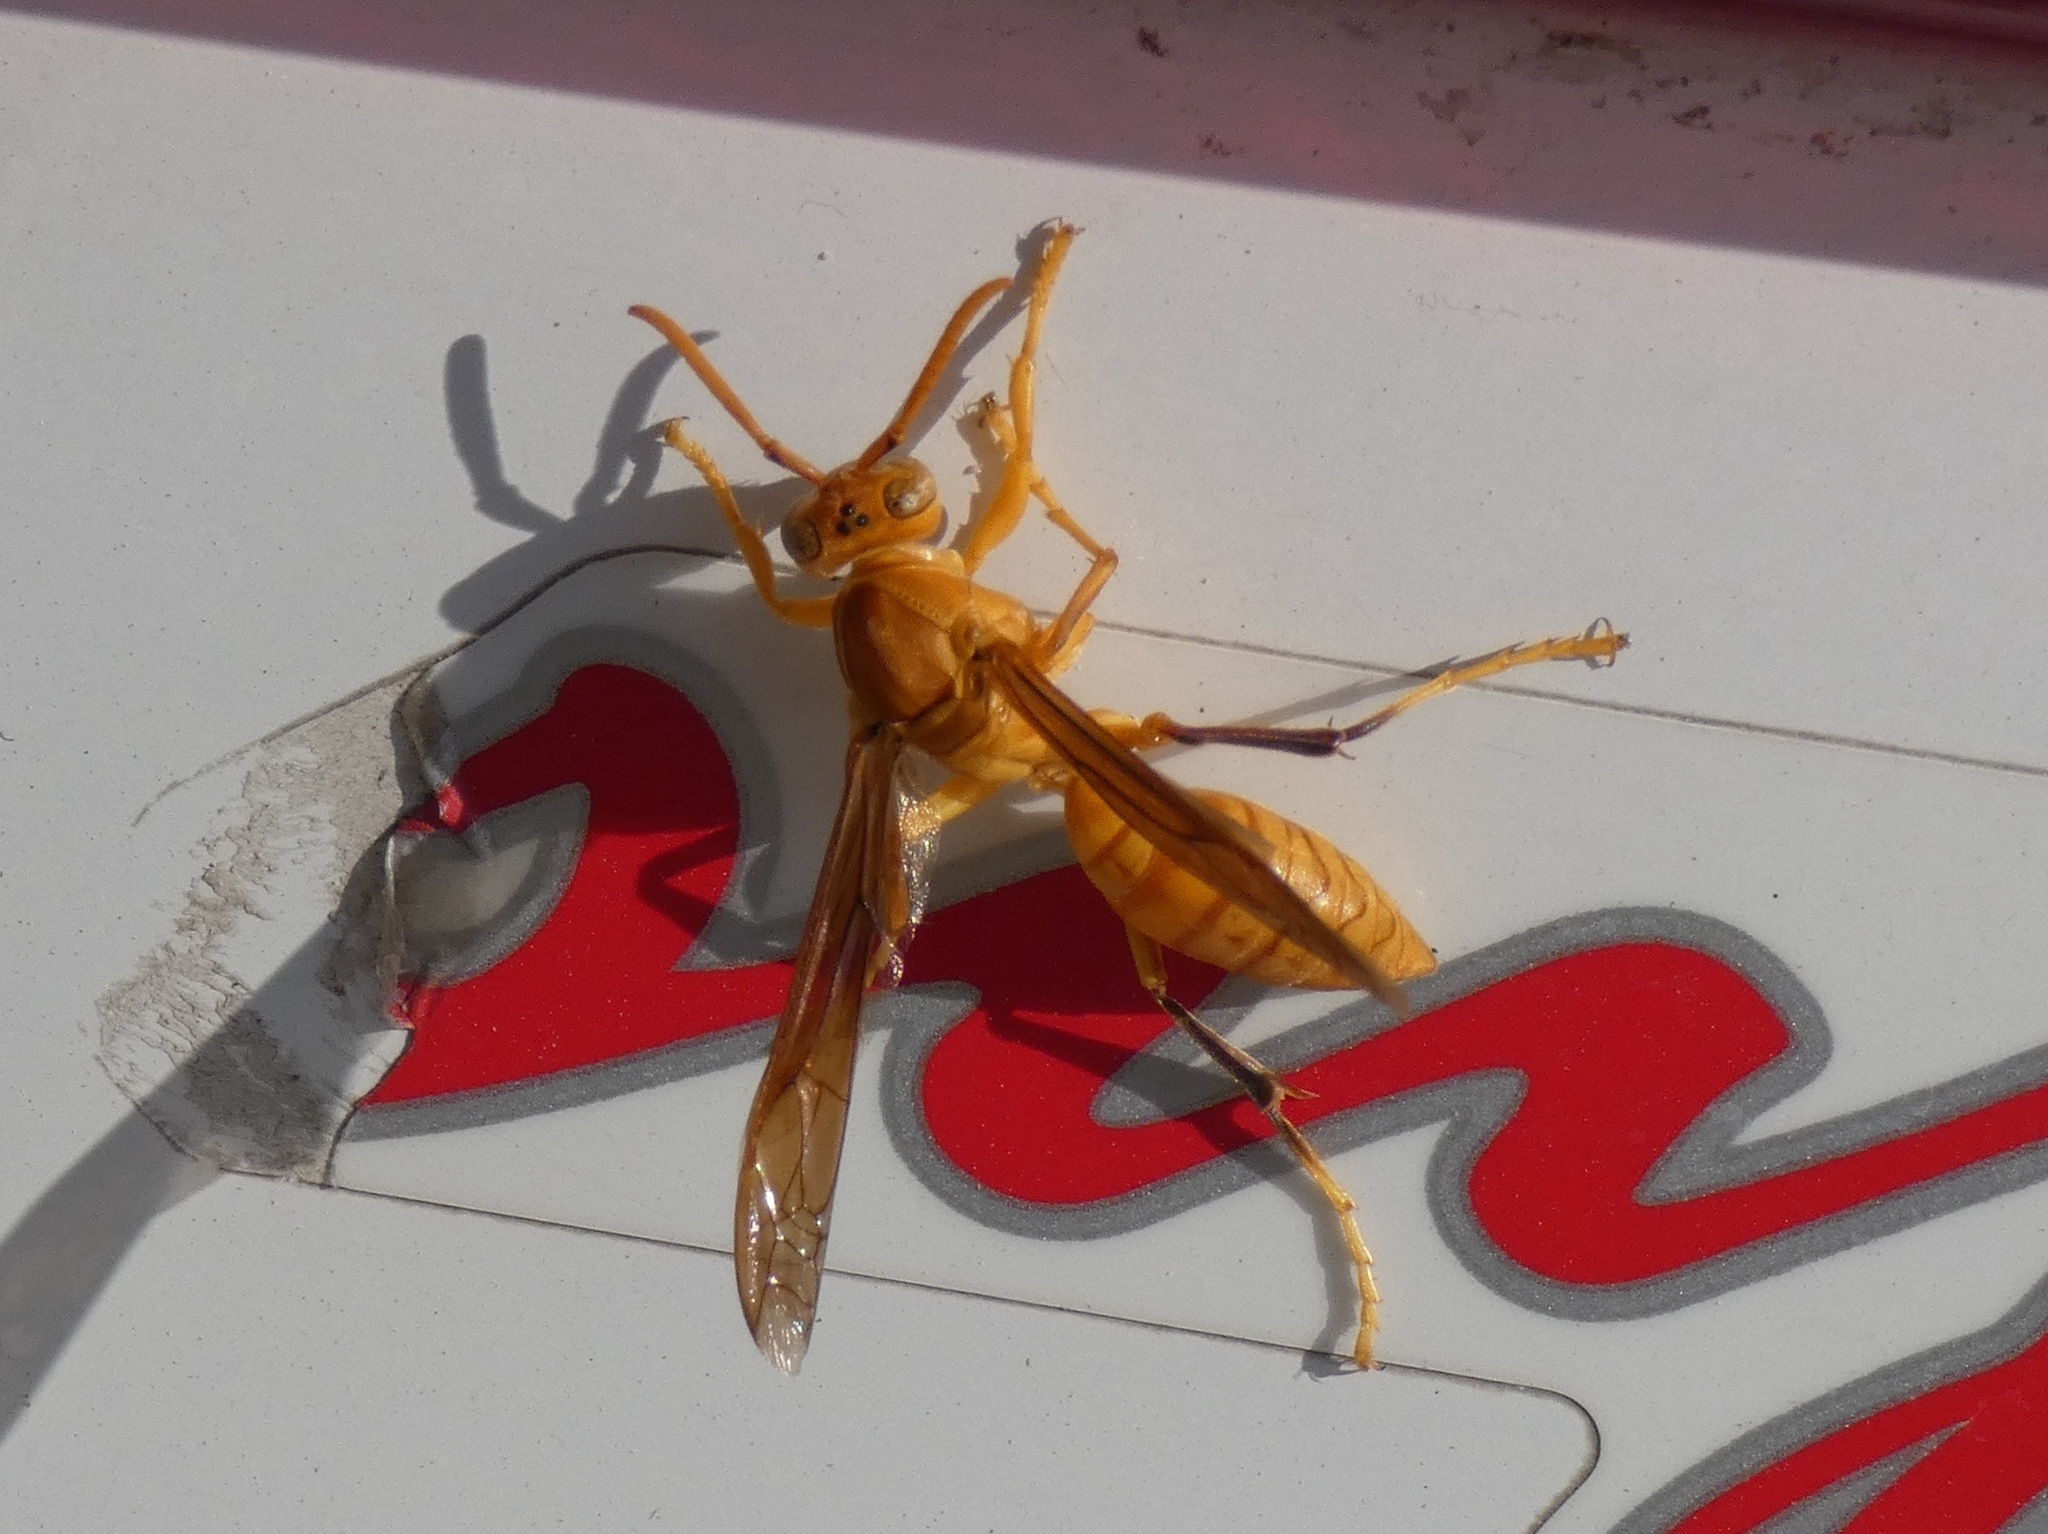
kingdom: Animalia
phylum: Arthropoda
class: Insecta
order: Hymenoptera
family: Eumenidae
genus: Polistes
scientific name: Polistes wattii
